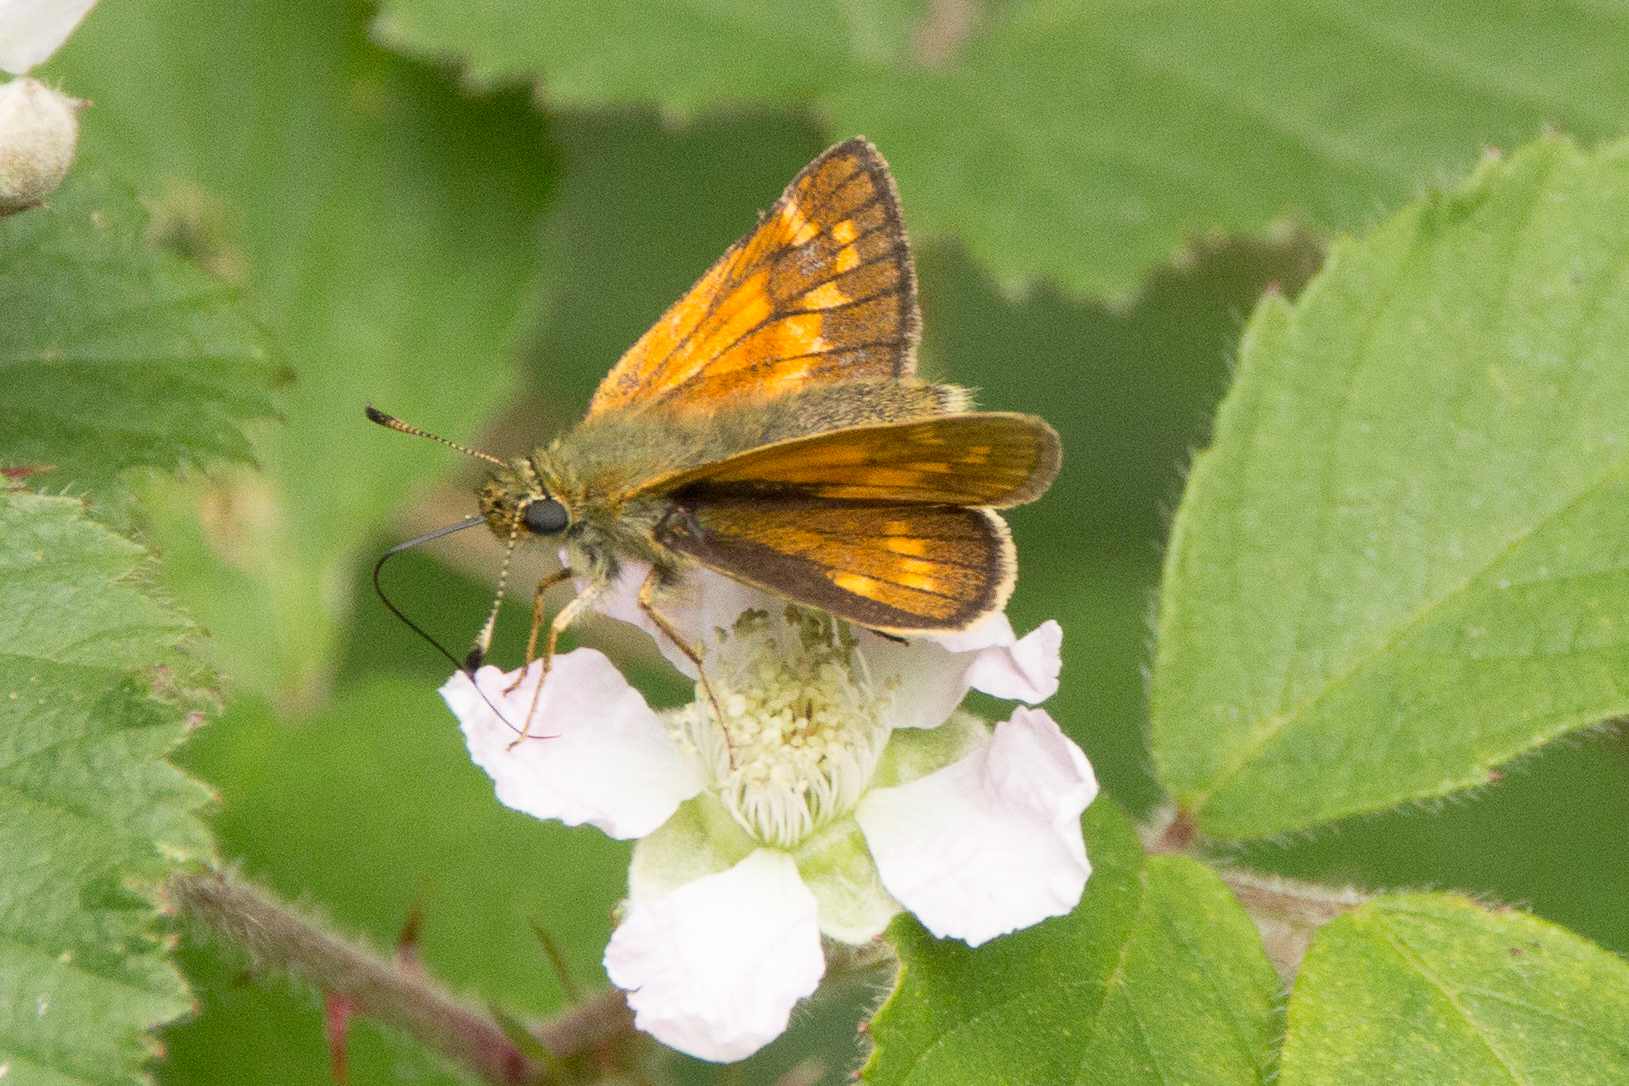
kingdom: Animalia
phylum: Arthropoda
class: Insecta
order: Lepidoptera
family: Hesperiidae
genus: Ochlodes
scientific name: Ochlodes venata
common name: Large skipper
